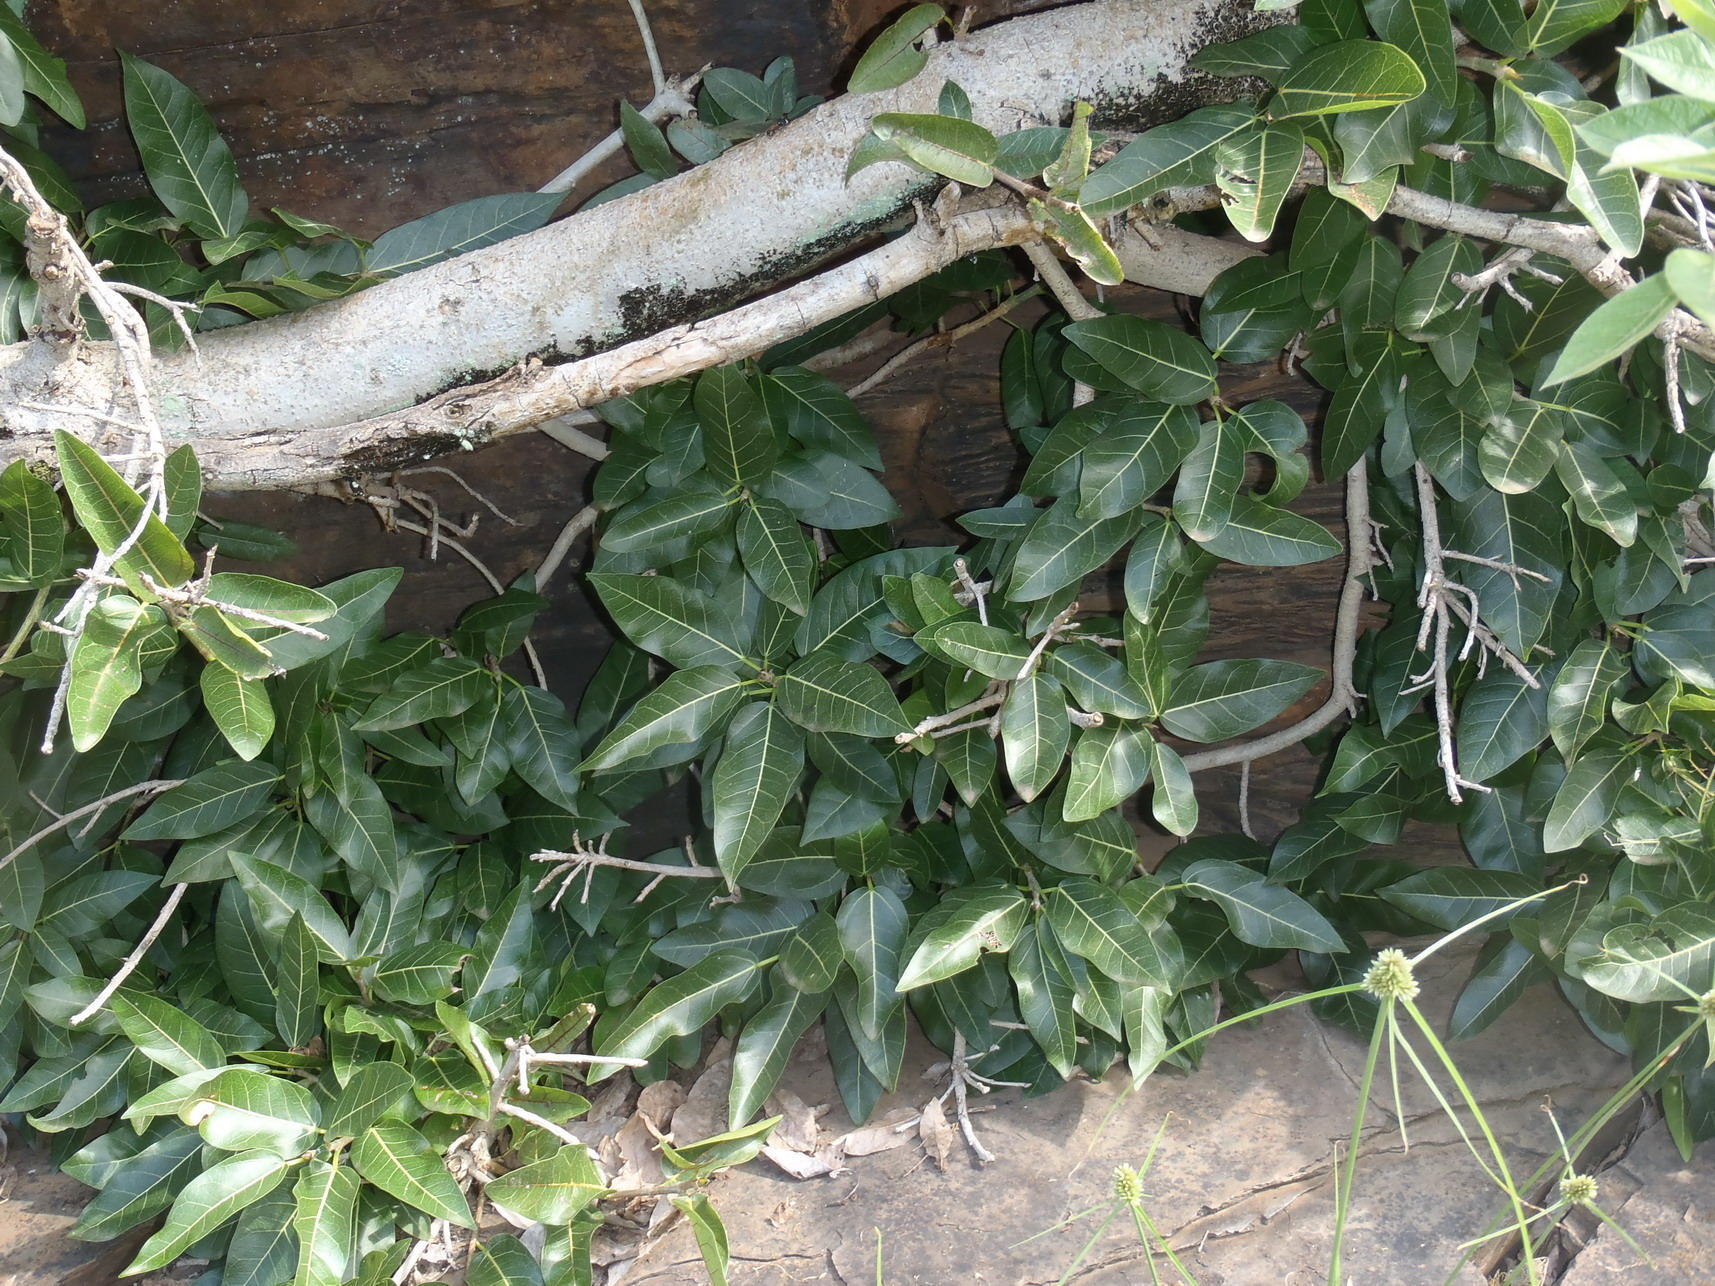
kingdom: Plantae
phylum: Tracheophyta
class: Magnoliopsida
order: Rosales
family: Moraceae
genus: Ficus
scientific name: Ficus ingens
